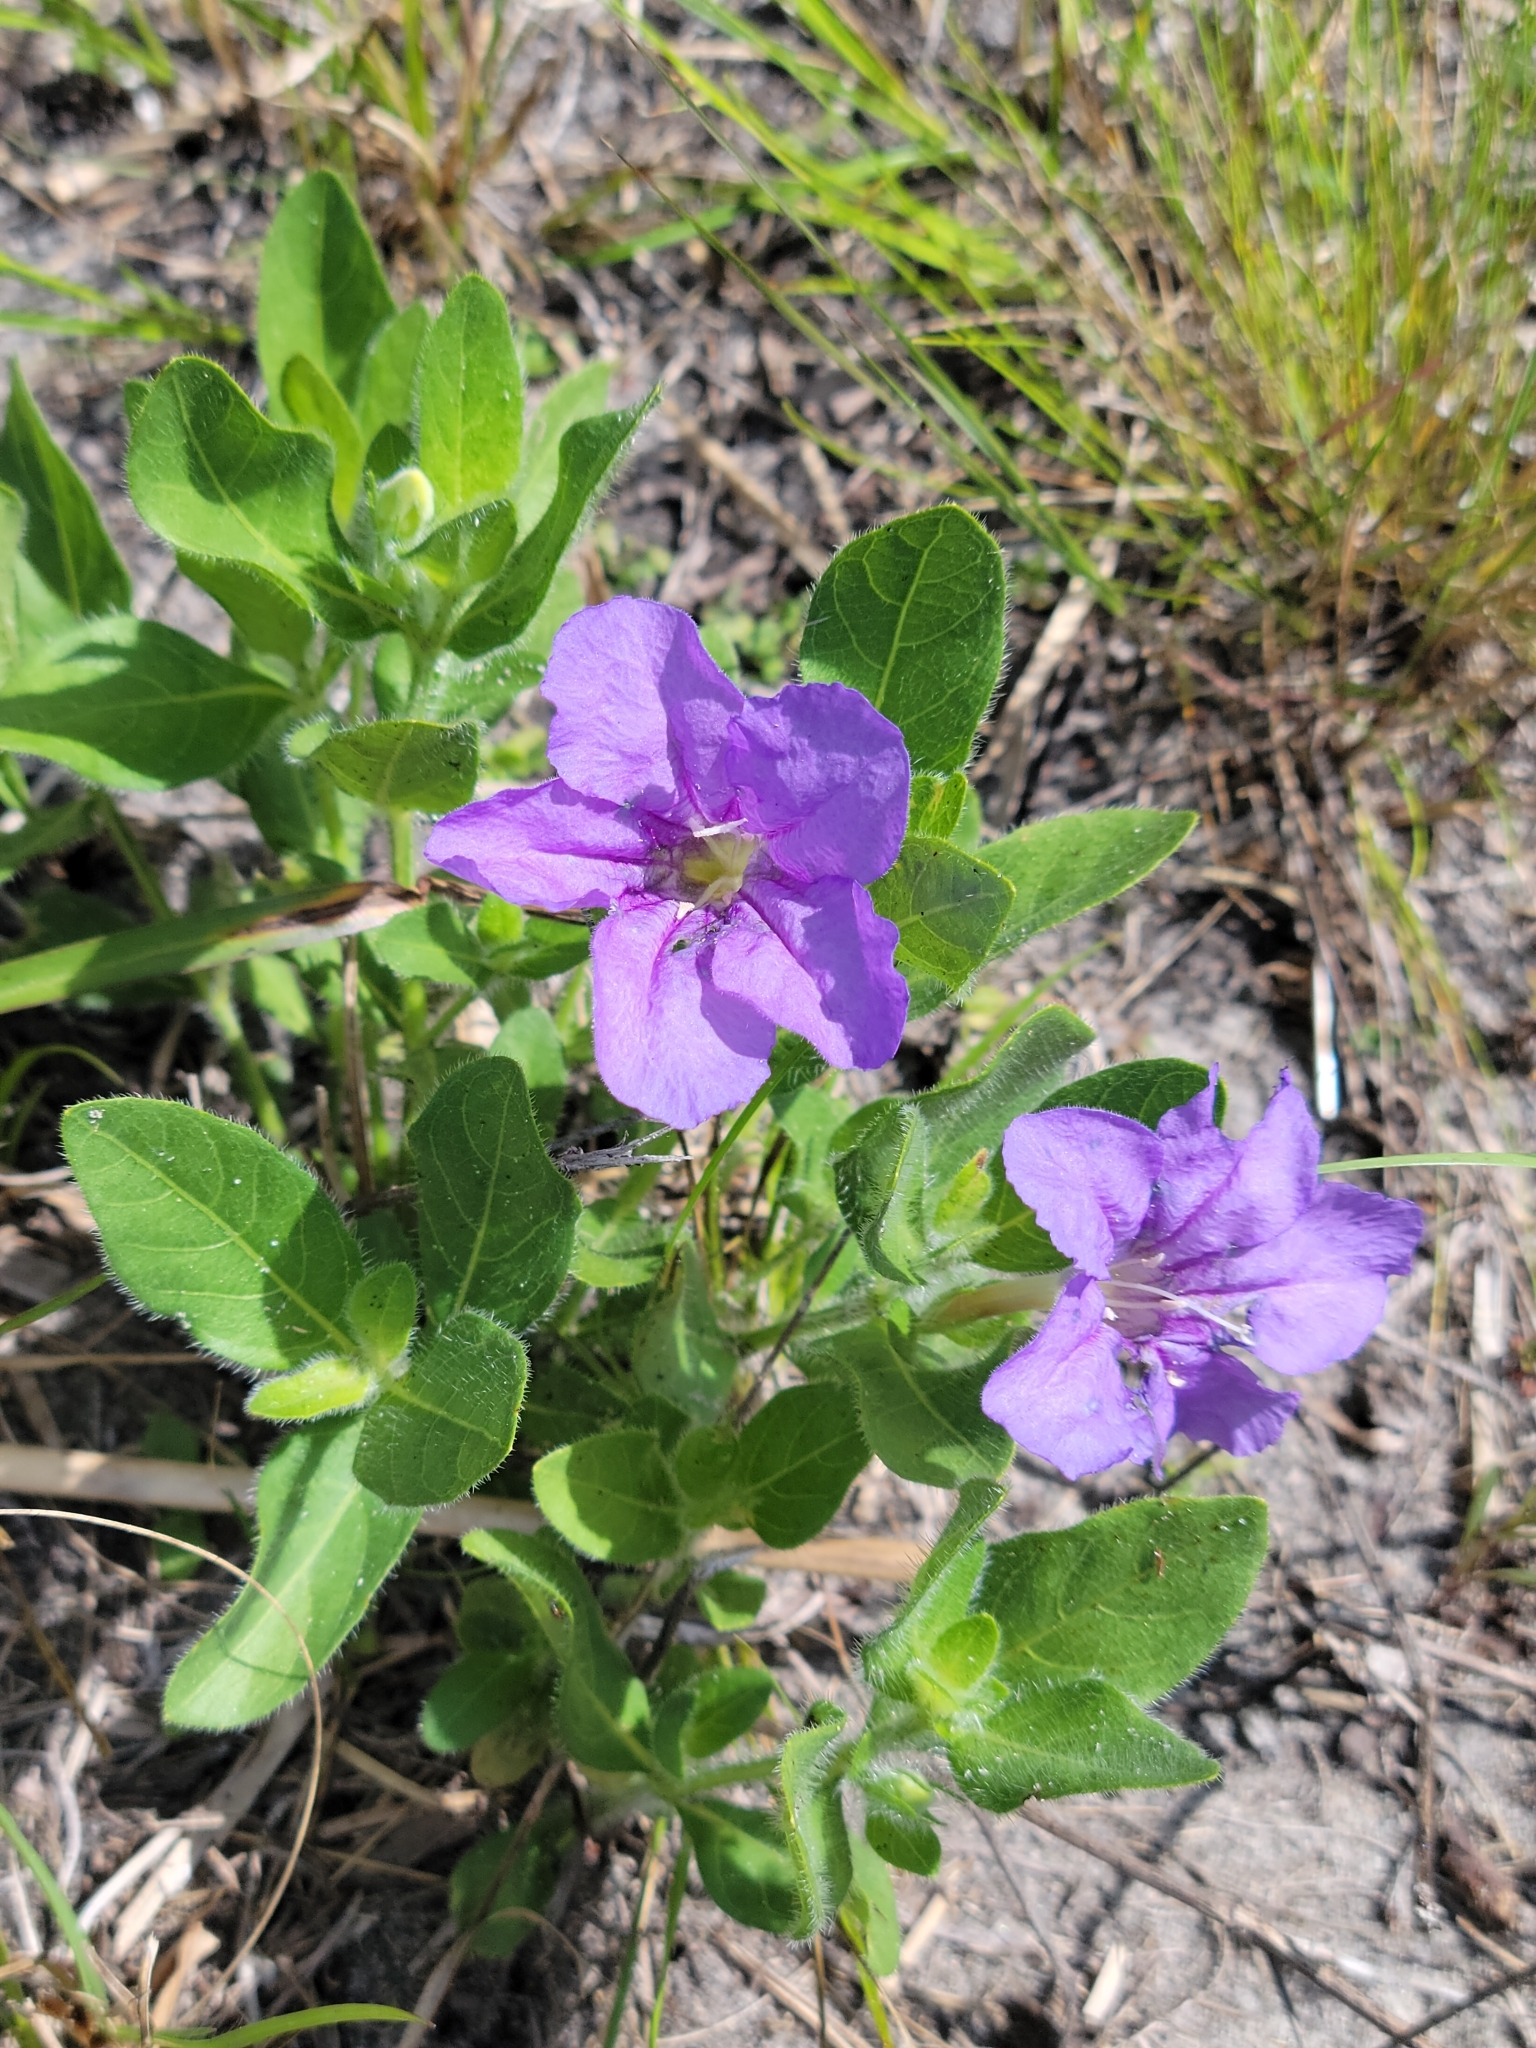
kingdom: Plantae
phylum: Tracheophyta
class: Magnoliopsida
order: Lamiales
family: Acanthaceae
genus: Ruellia
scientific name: Ruellia caroliniensis
